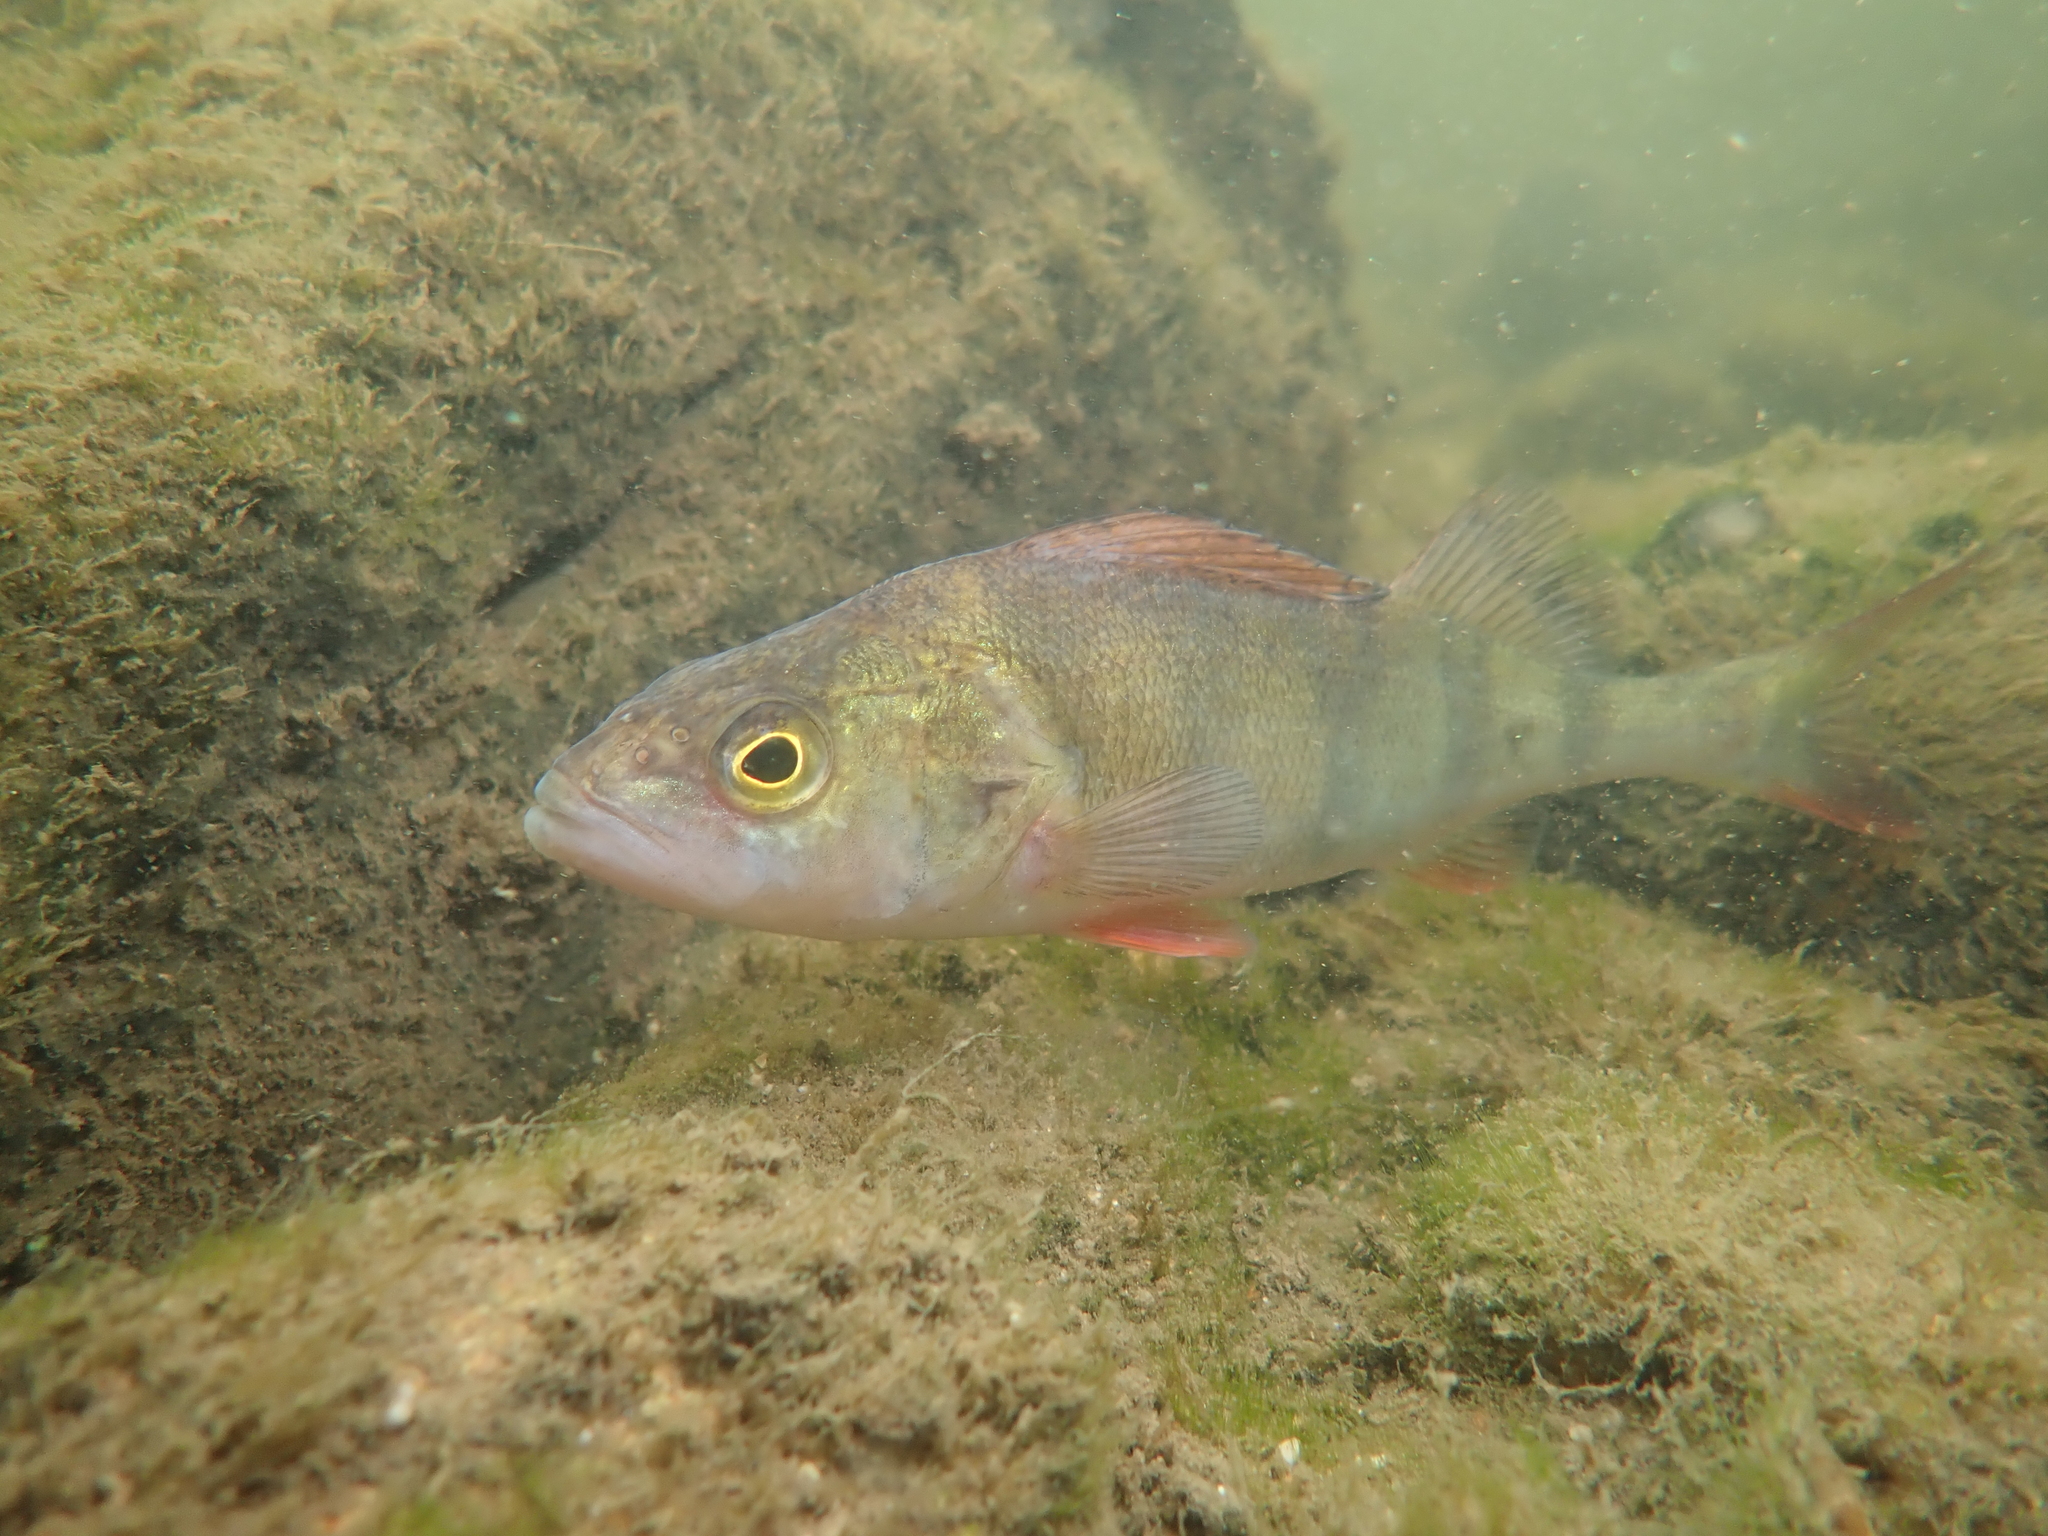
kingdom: Animalia
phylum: Chordata
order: Perciformes
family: Percidae
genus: Perca
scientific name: Perca fluviatilis
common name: Perch
